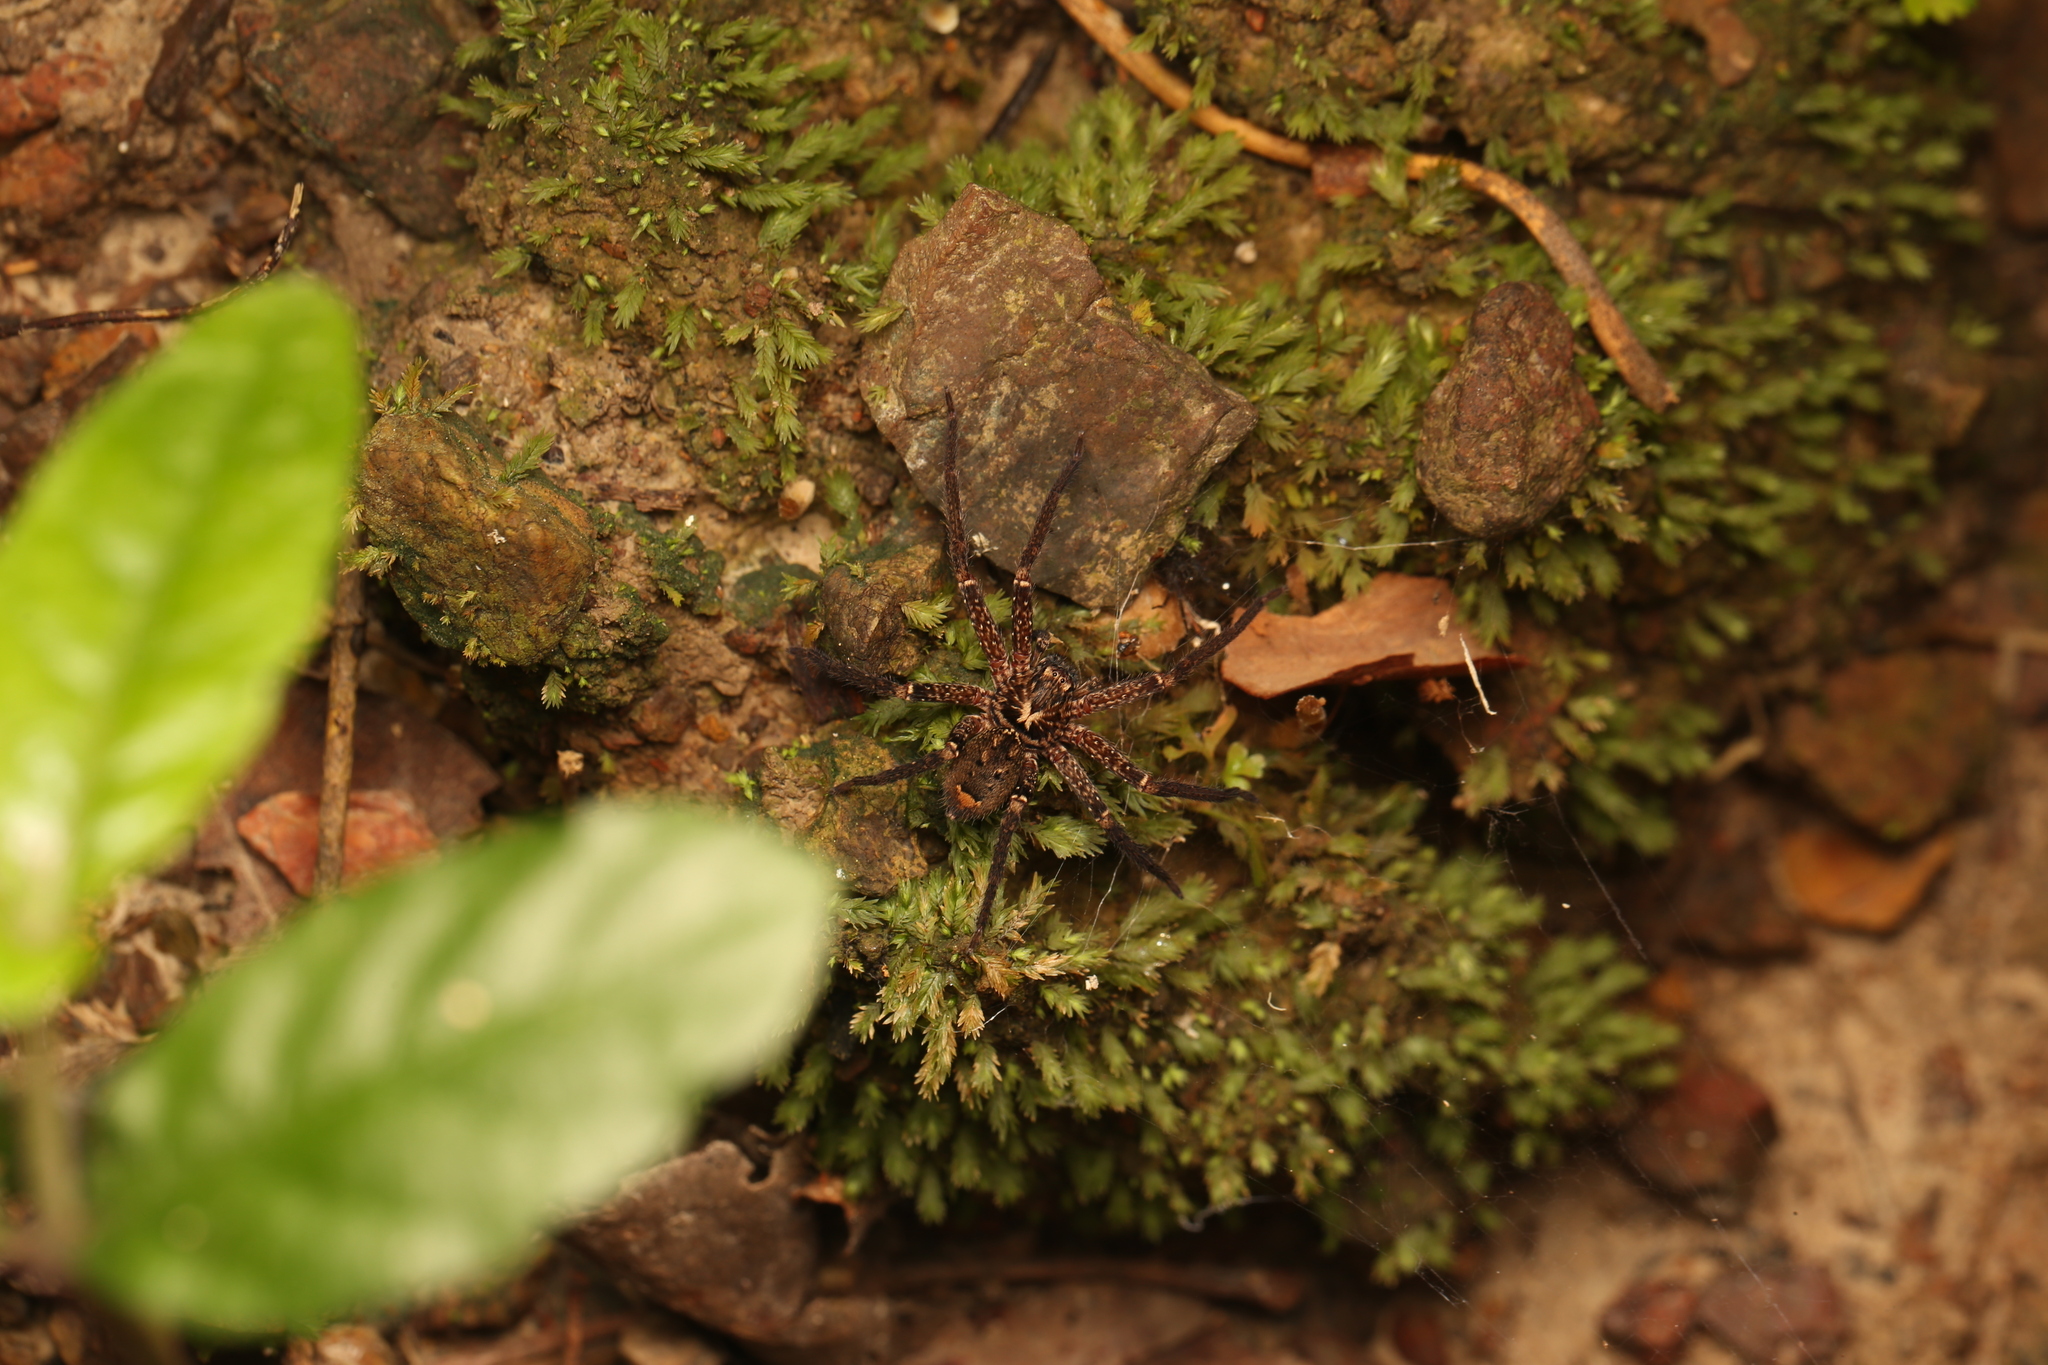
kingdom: Animalia
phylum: Arthropoda
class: Arachnida
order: Araneae
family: Sparassidae
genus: Heteropoda
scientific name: Heteropoda distincta
